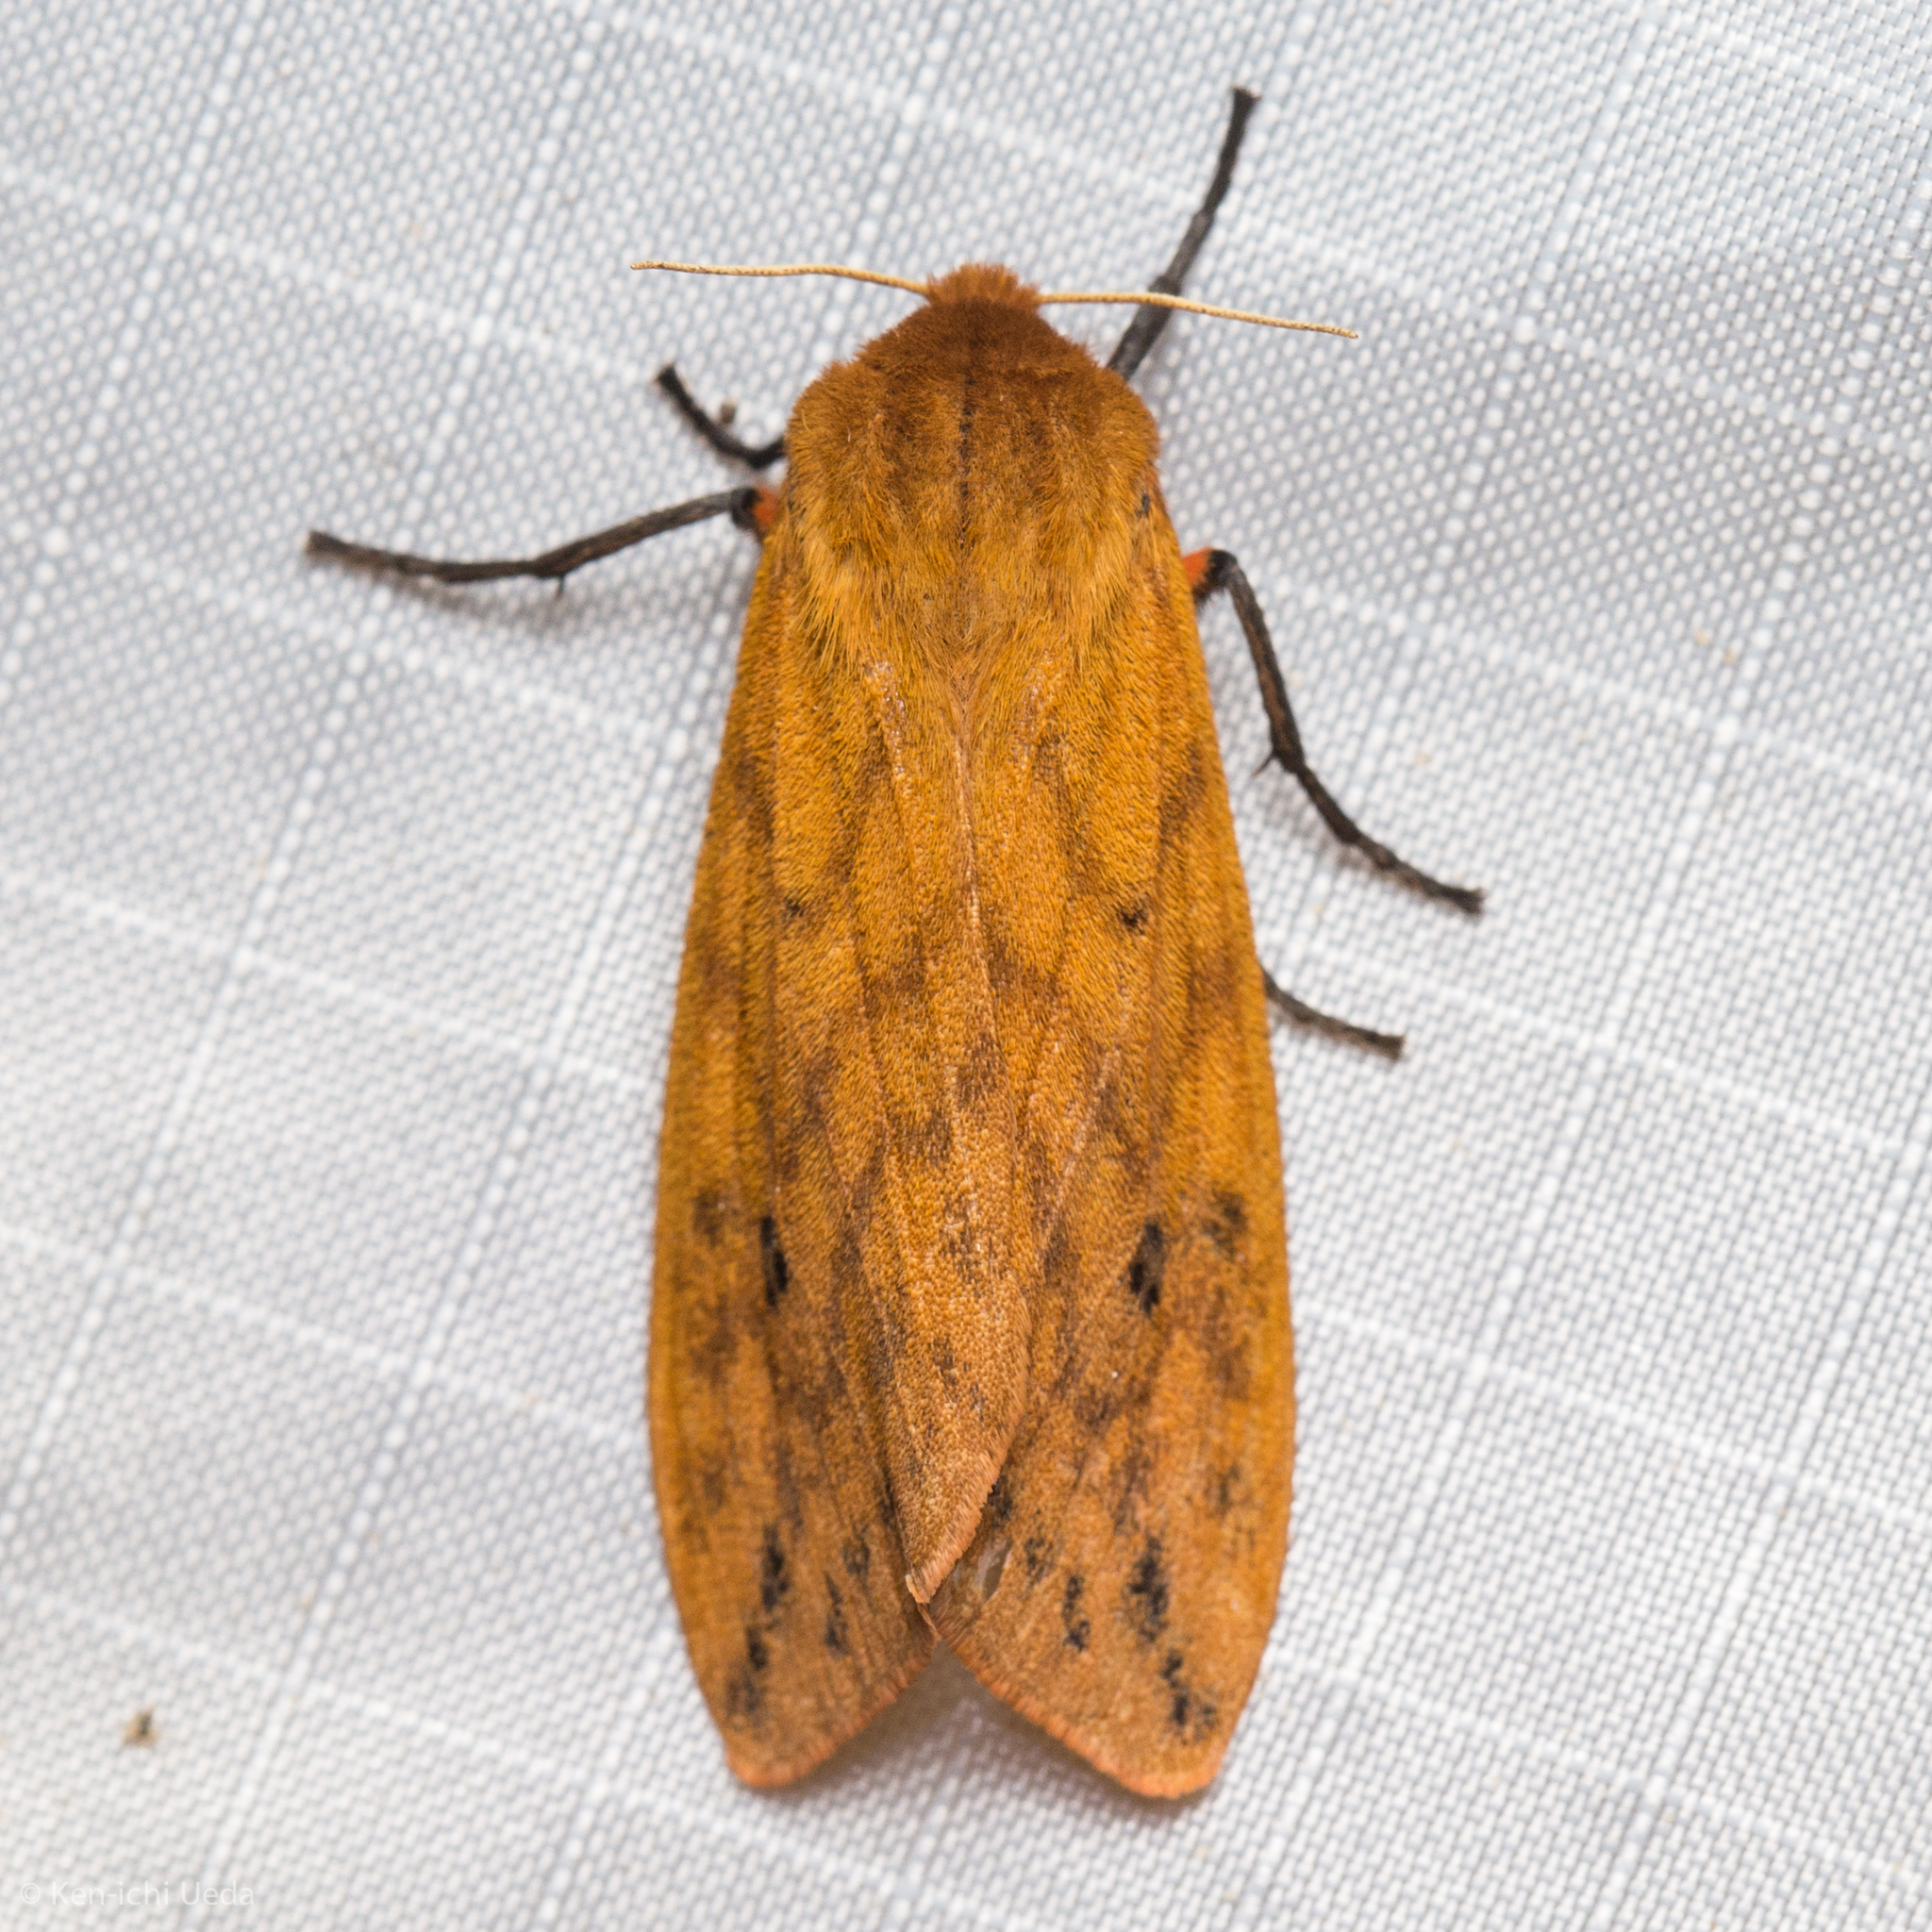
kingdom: Animalia
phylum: Arthropoda
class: Insecta
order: Lepidoptera
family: Erebidae
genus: Pyrrharctia
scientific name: Pyrrharctia isabella
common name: Isabella tiger moth
